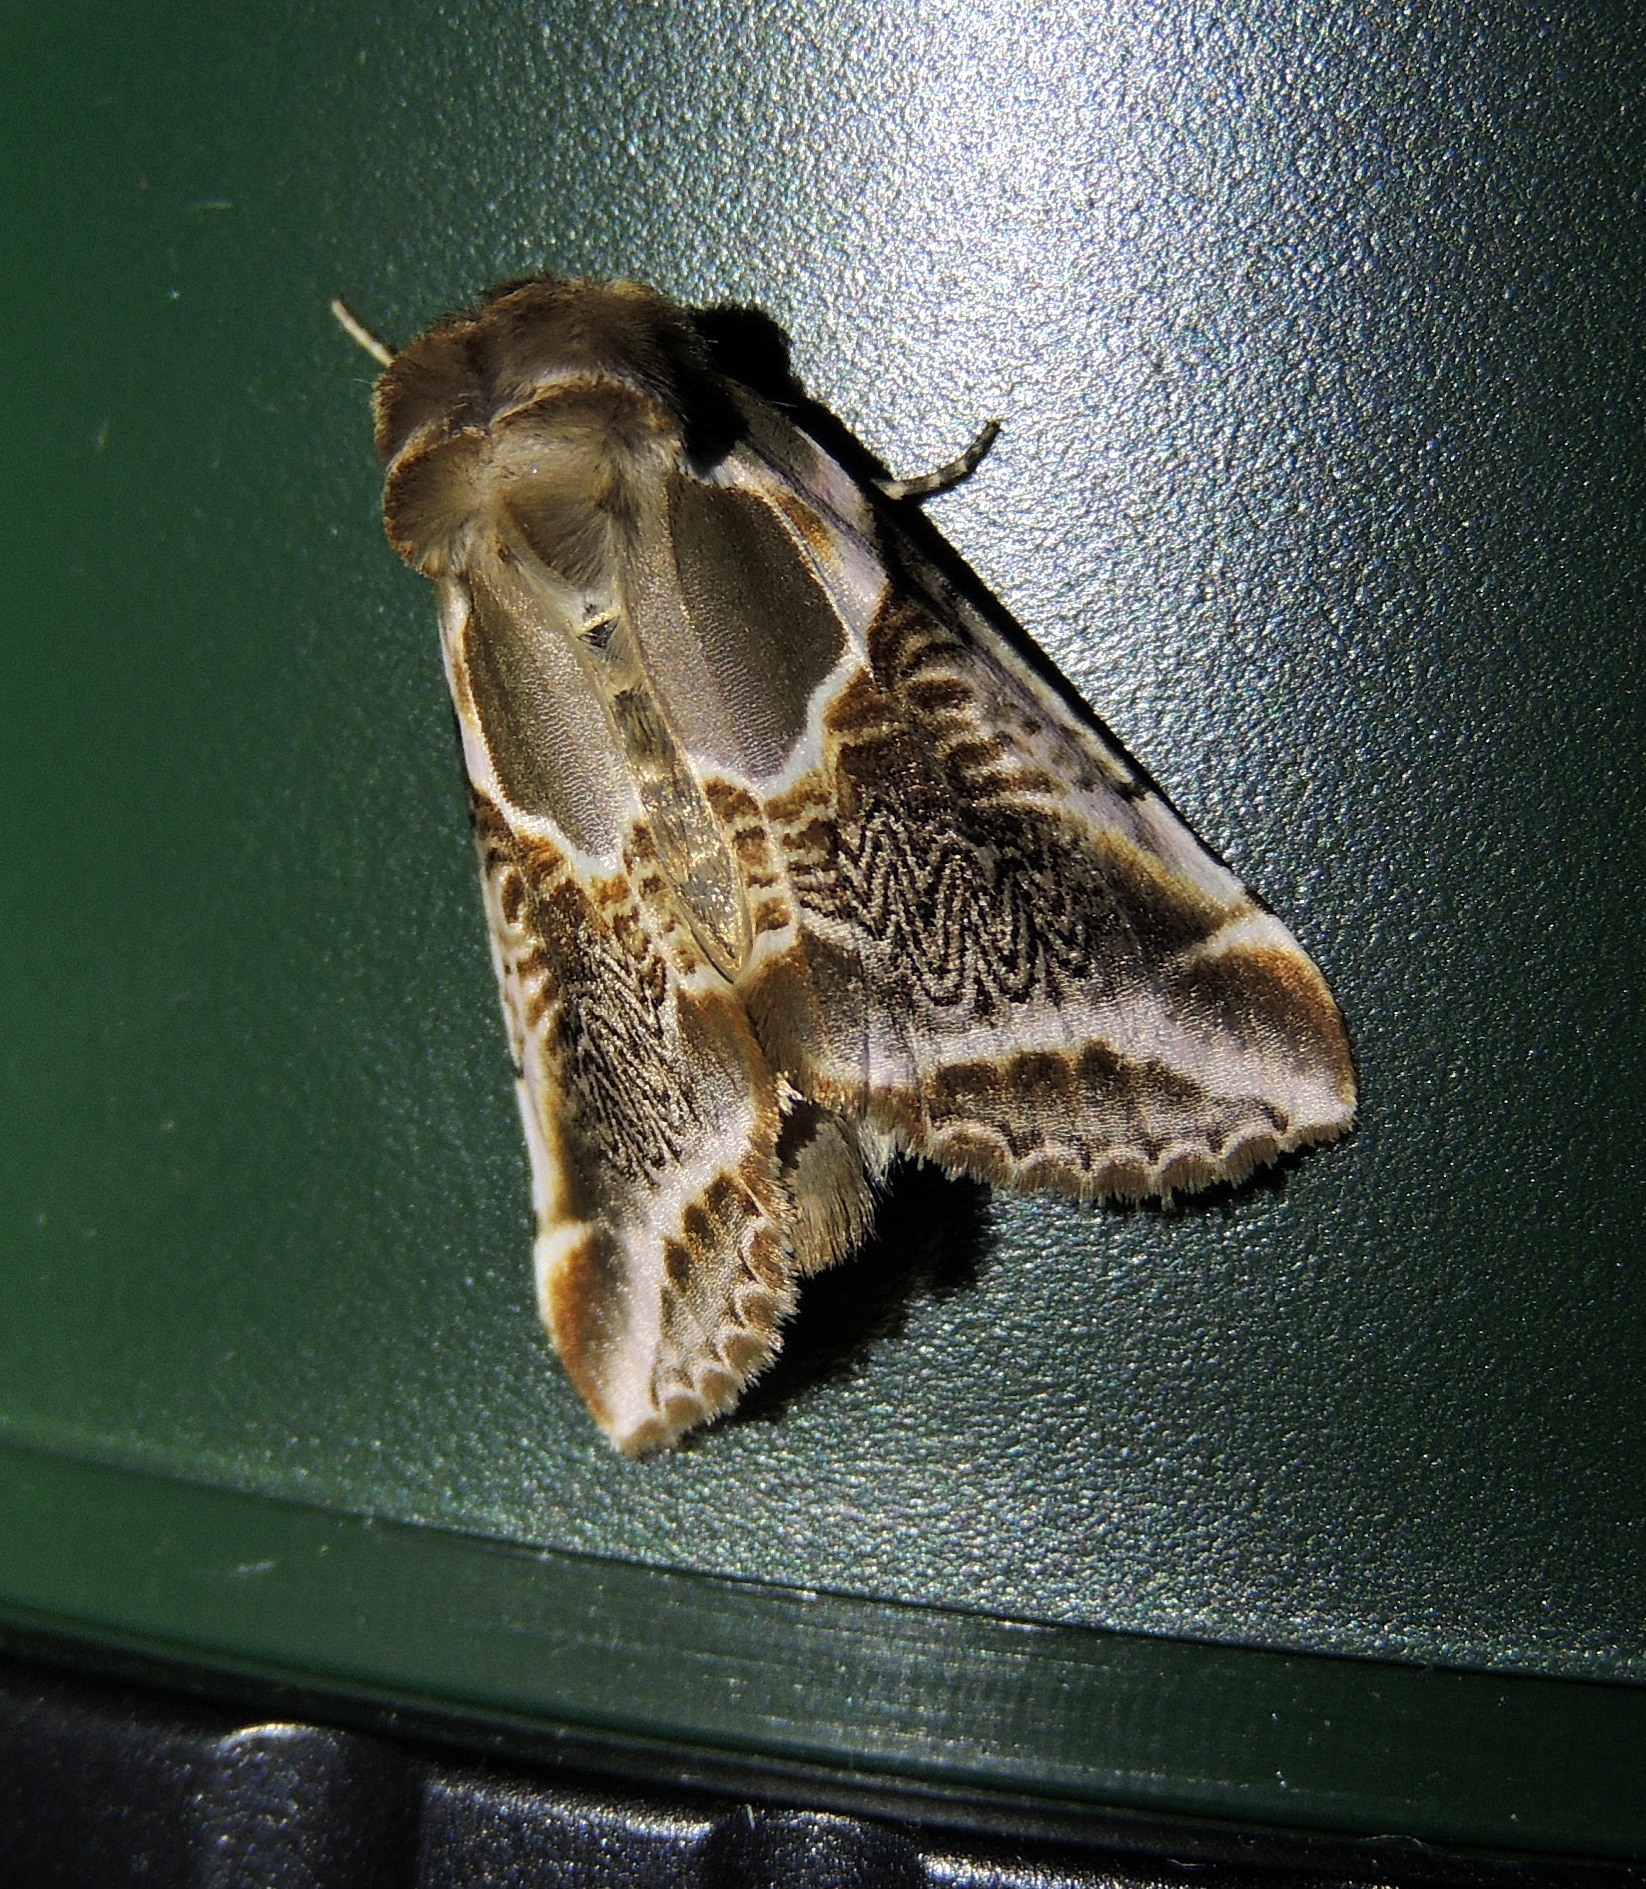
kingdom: Animalia
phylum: Arthropoda
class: Insecta
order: Lepidoptera
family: Drepanidae
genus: Habrosyne
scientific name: Habrosyne scripta
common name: Lettered habrosyne moth
